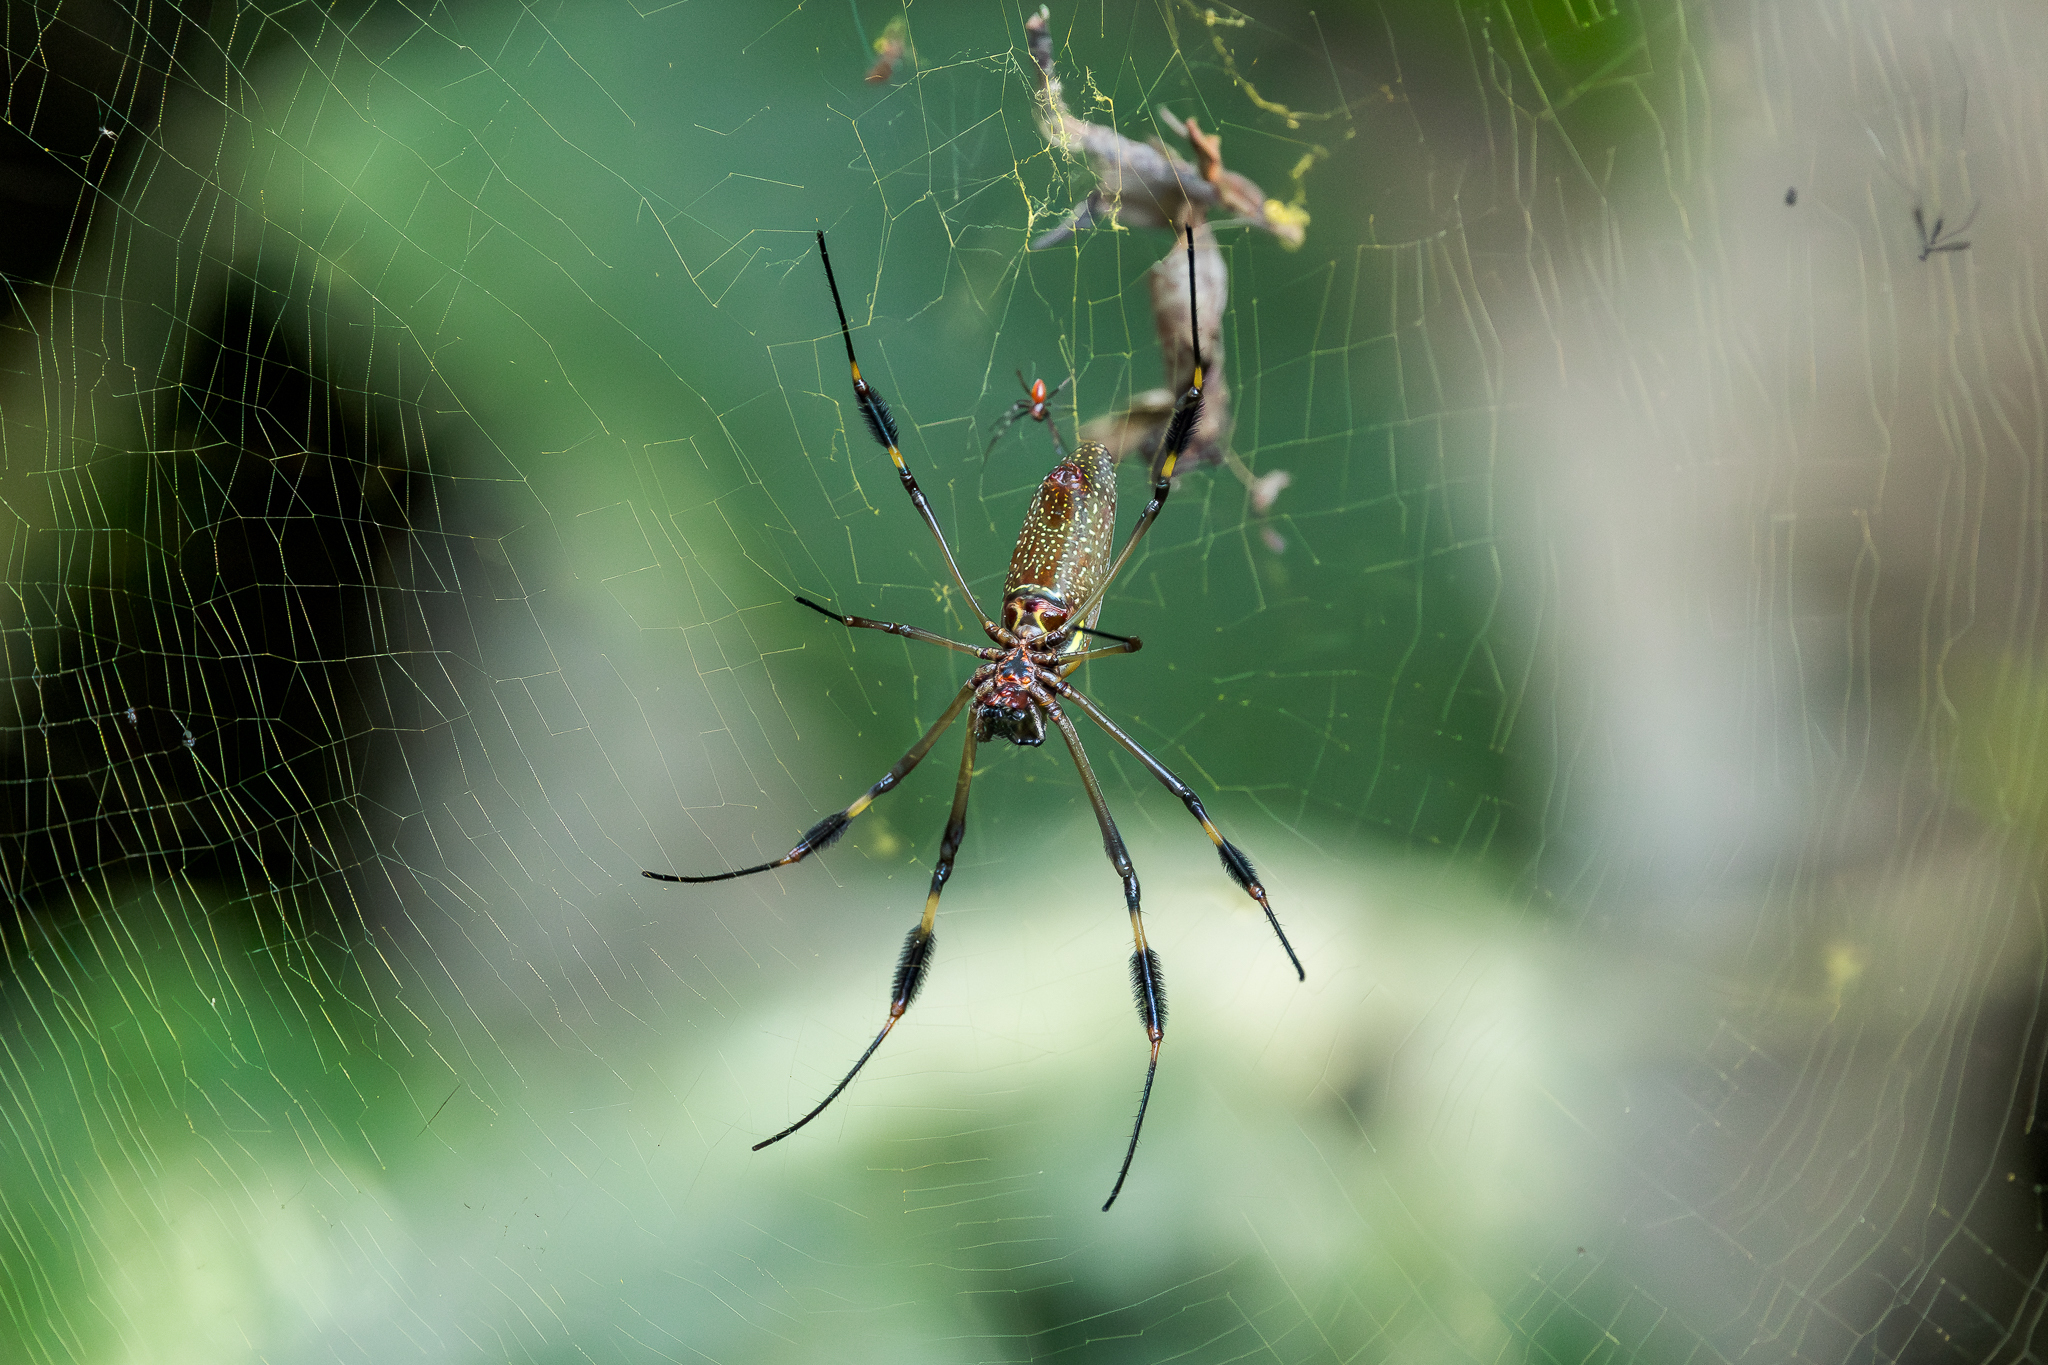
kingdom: Animalia
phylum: Arthropoda
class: Arachnida
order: Araneae
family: Araneidae
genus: Trichonephila
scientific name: Trichonephila clavipes
